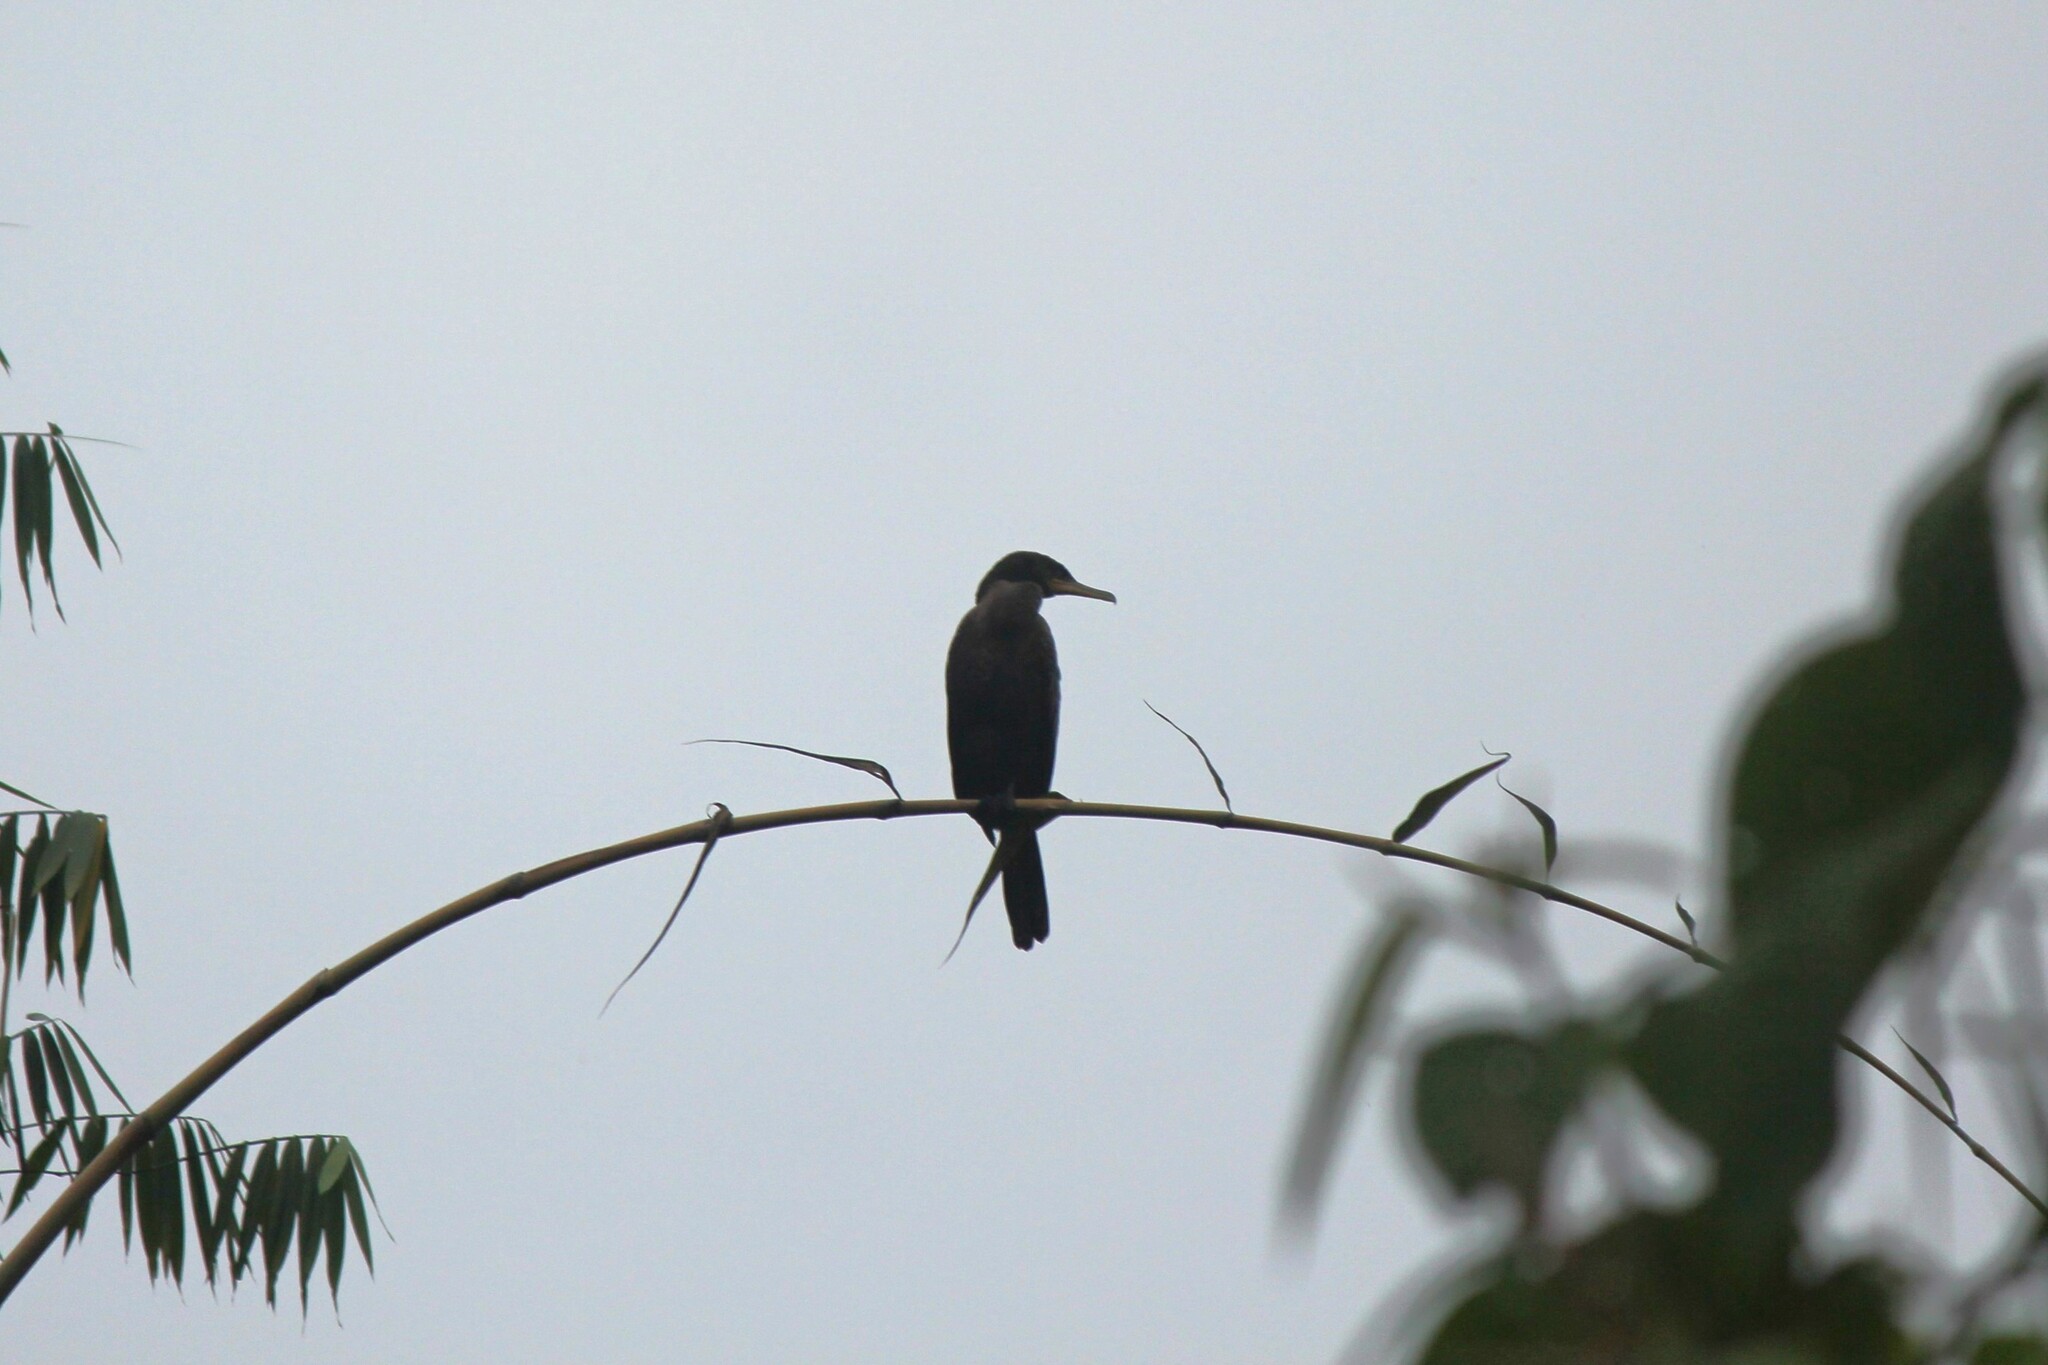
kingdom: Animalia
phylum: Chordata
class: Aves
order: Suliformes
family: Phalacrocoracidae
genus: Phalacrocorax
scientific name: Phalacrocorax brasilianus
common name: Neotropic cormorant
